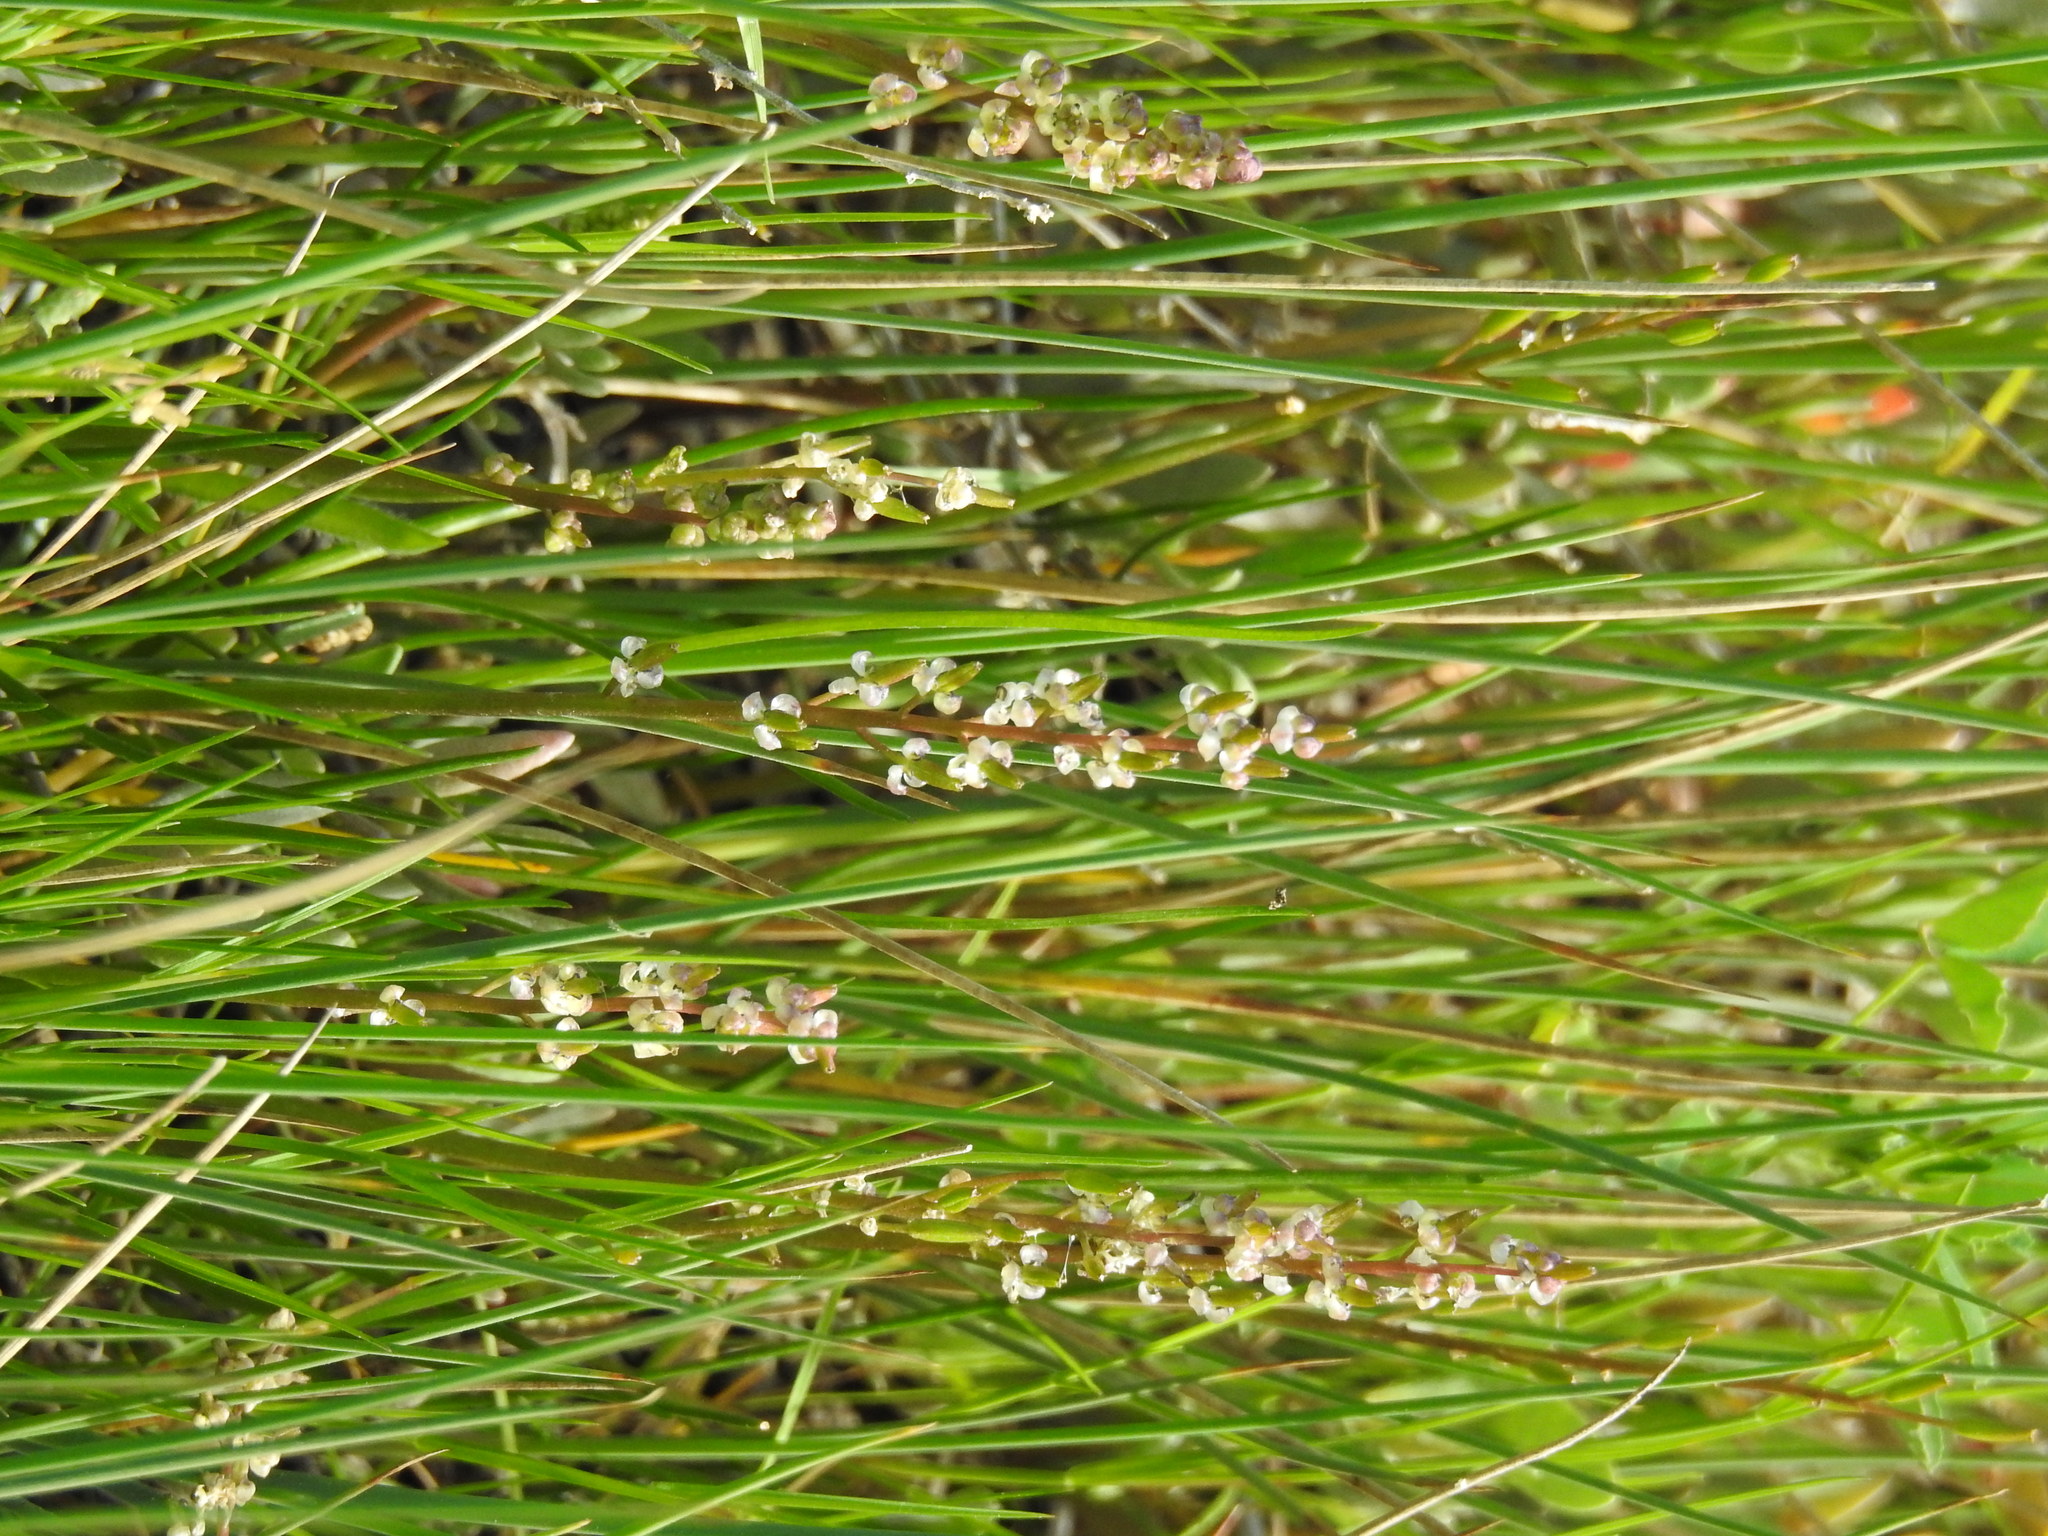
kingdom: Plantae
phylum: Tracheophyta
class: Liliopsida
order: Alismatales
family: Juncaginaceae
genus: Triglochin
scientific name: Triglochin barrelieri
